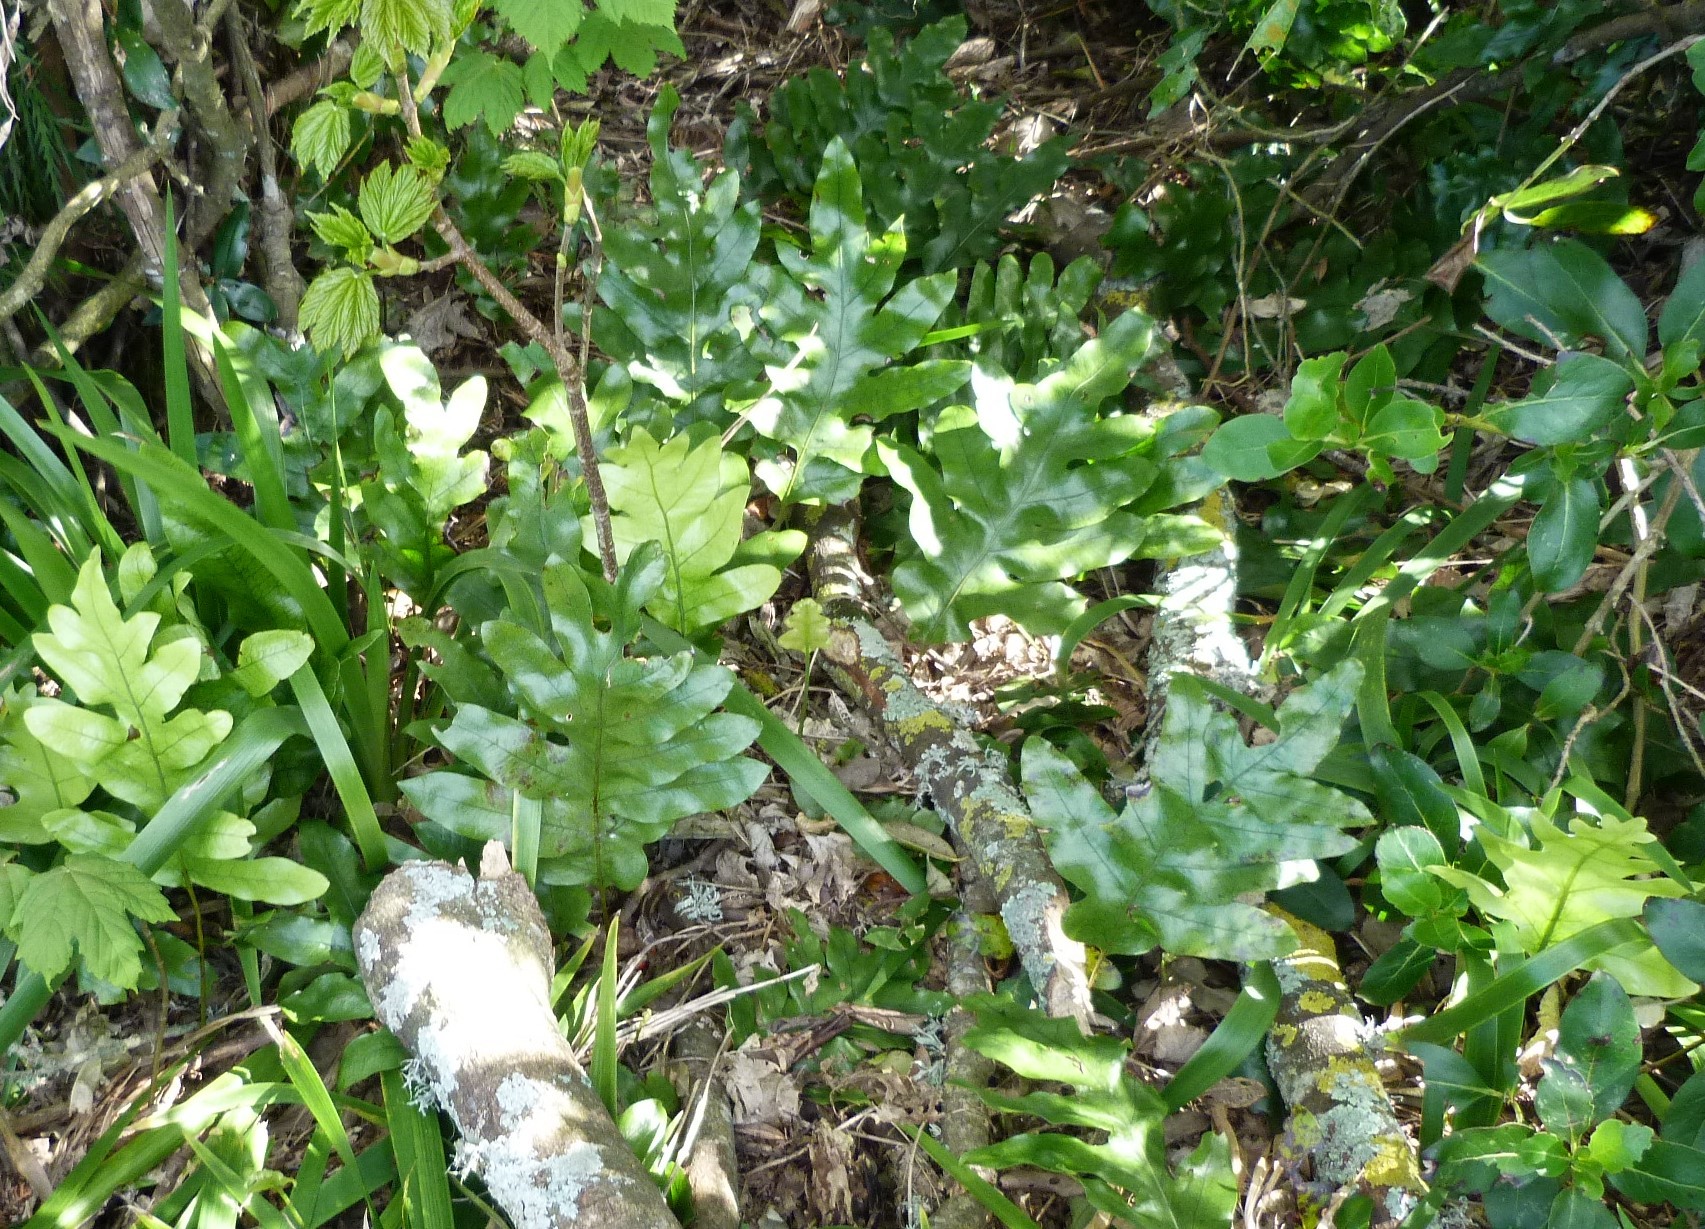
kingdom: Plantae
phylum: Tracheophyta
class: Polypodiopsida
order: Polypodiales
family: Polypodiaceae
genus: Lecanopteris
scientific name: Lecanopteris pustulata
